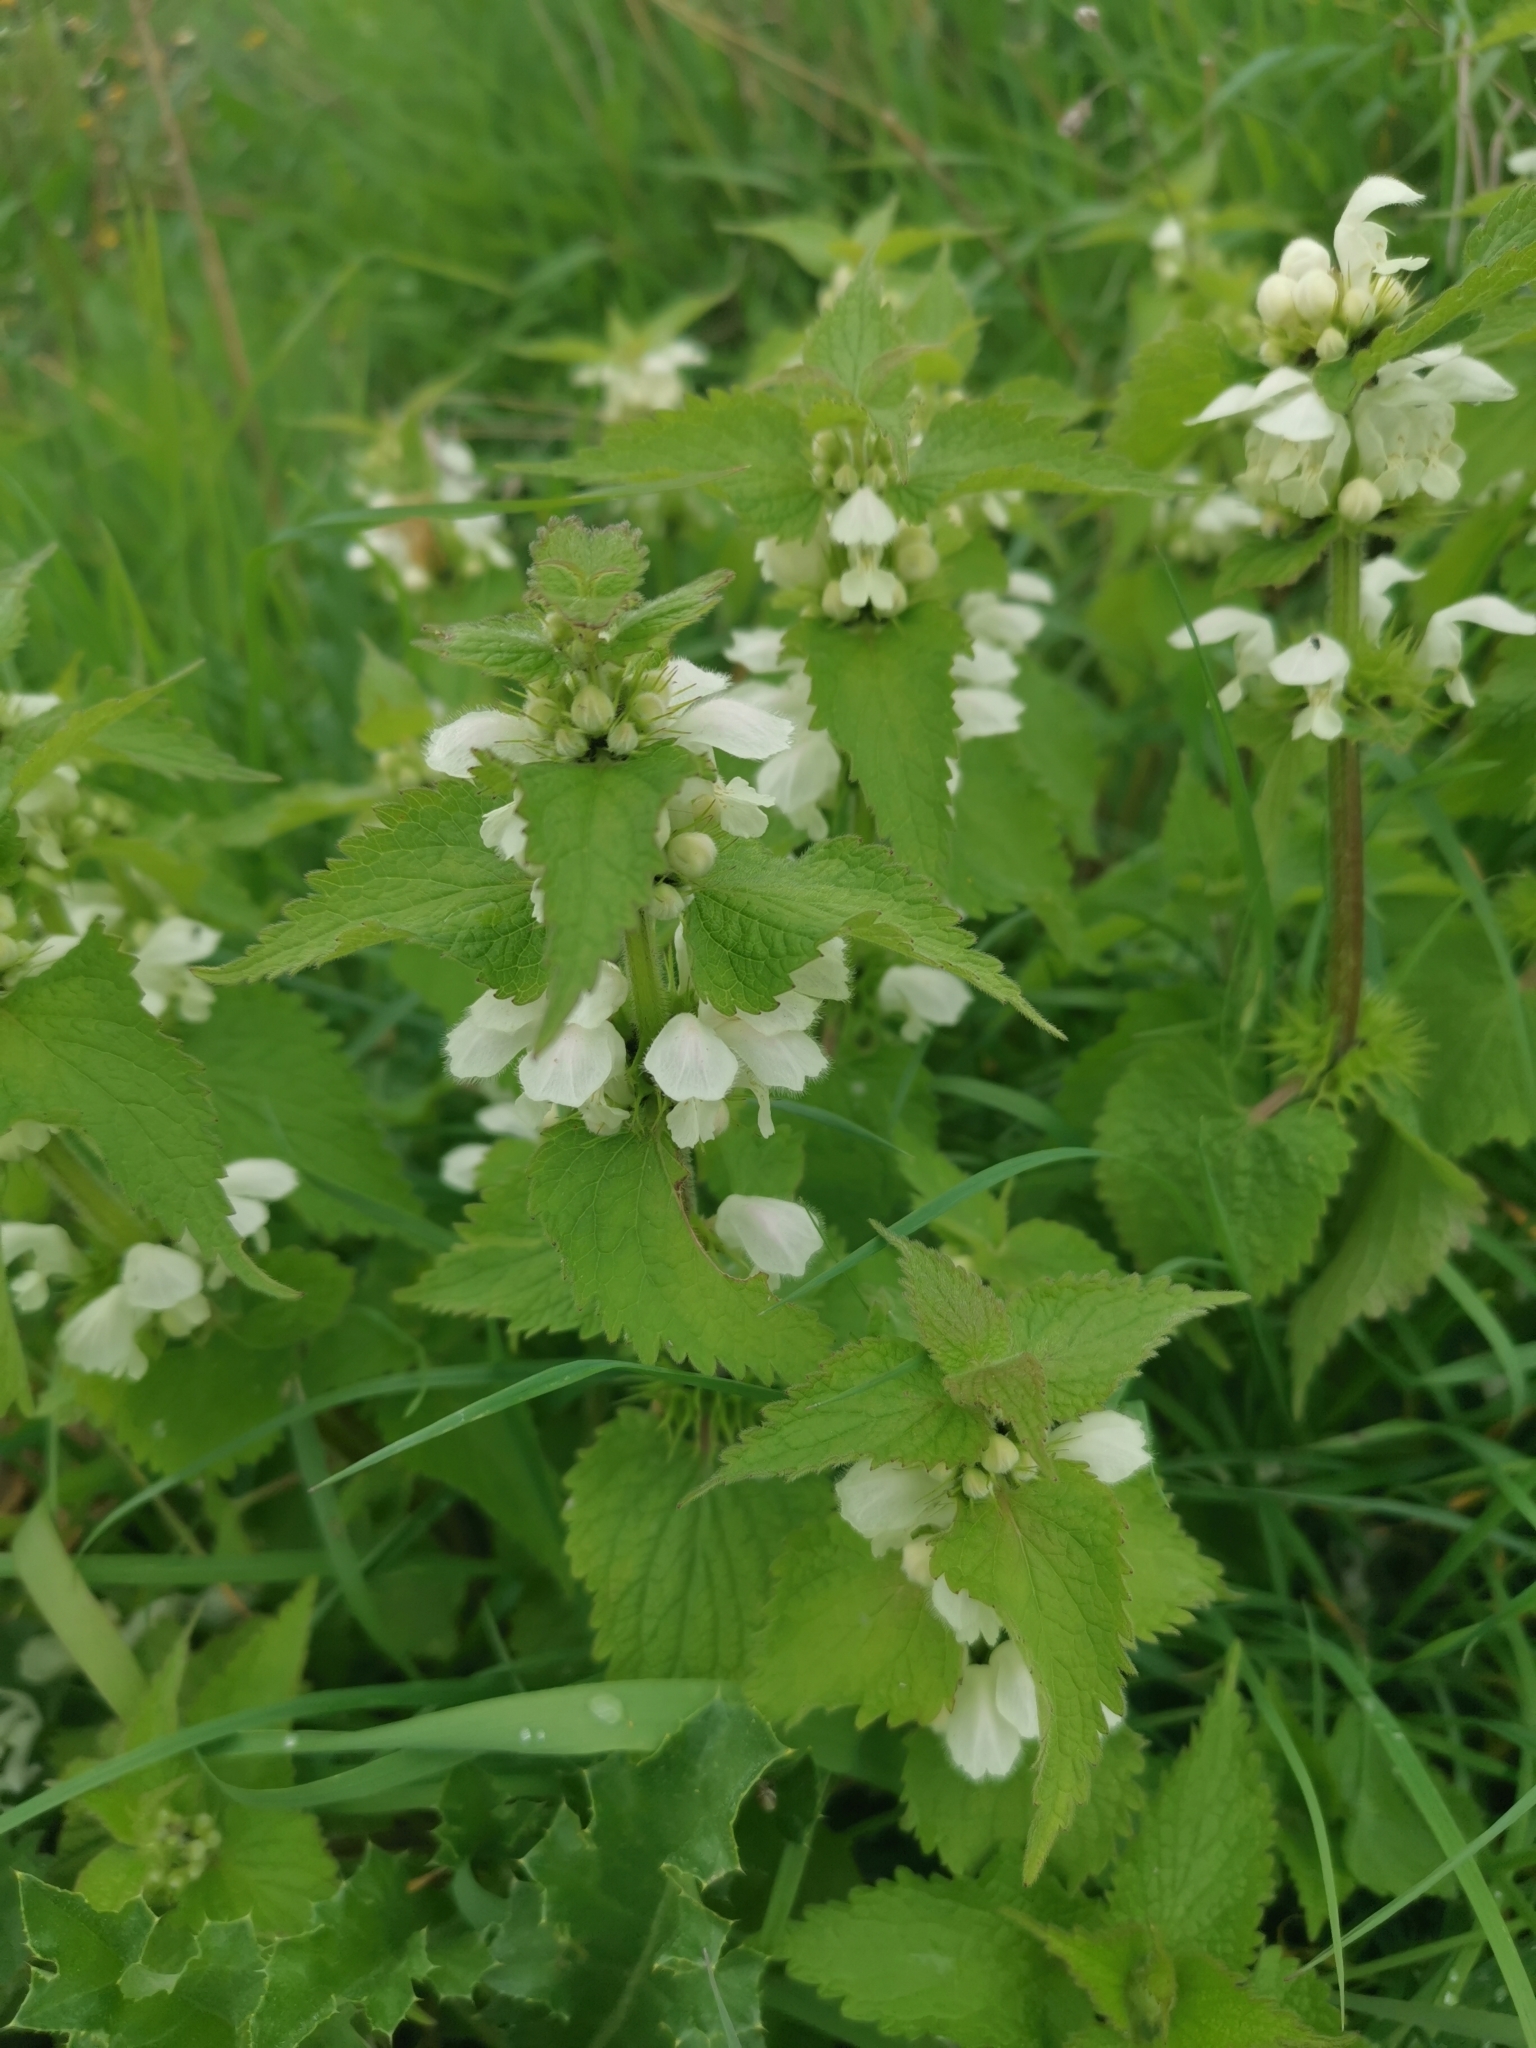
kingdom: Plantae
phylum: Tracheophyta
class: Magnoliopsida
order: Lamiales
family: Lamiaceae
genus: Lamium
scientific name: Lamium album
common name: White dead-nettle
